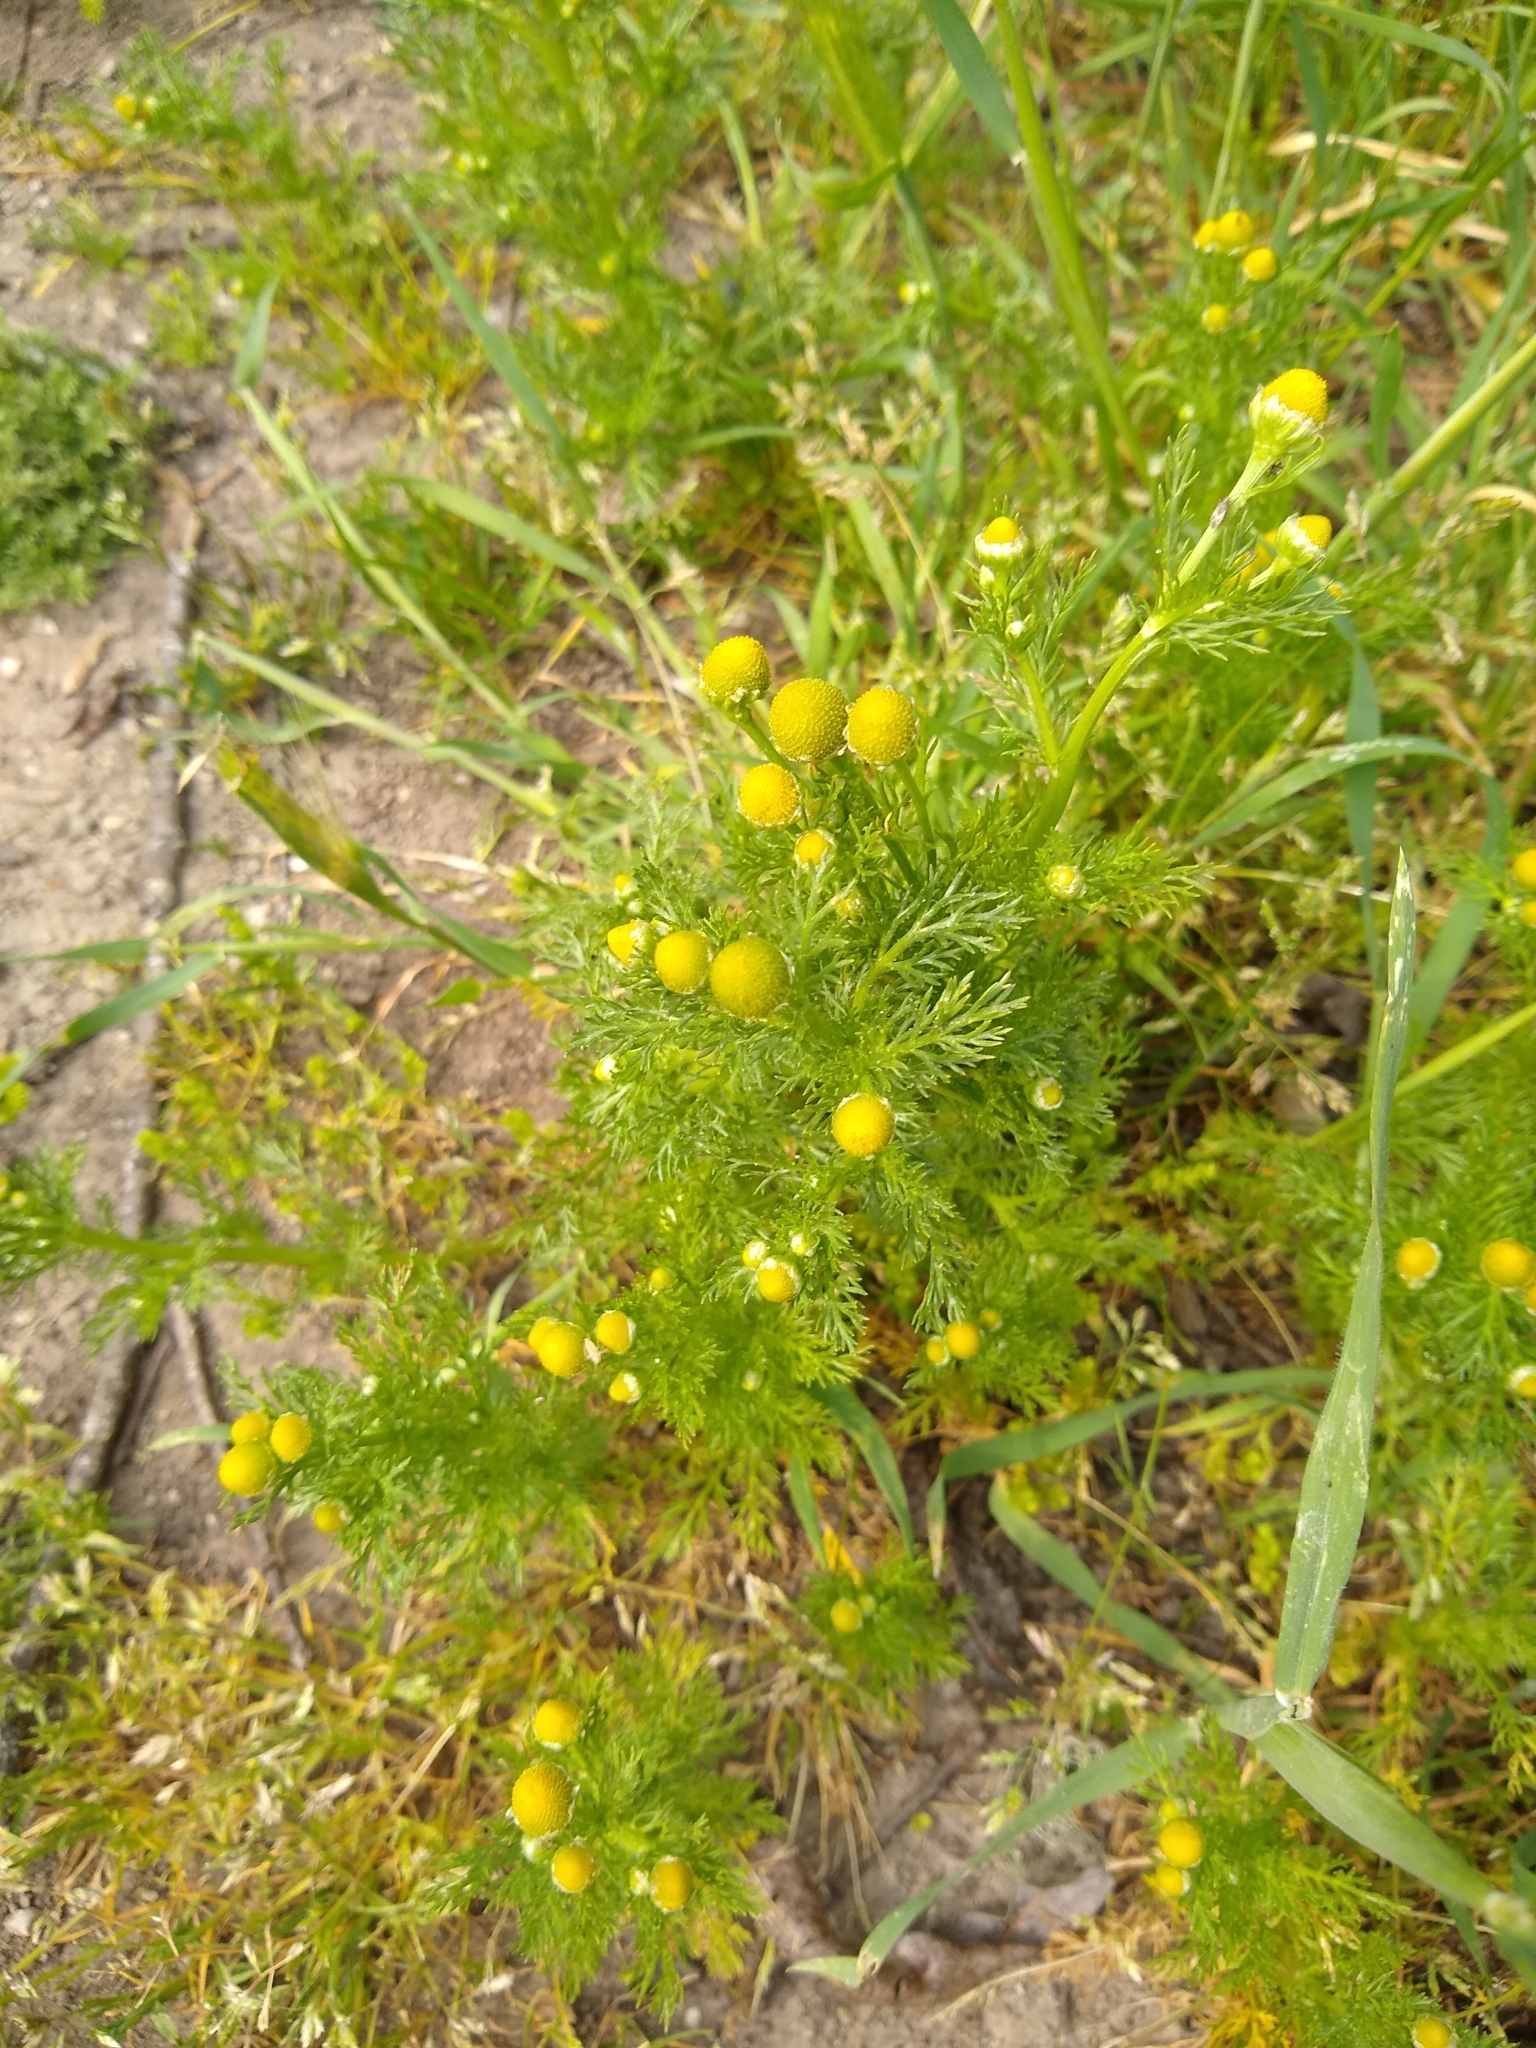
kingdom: Plantae
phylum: Tracheophyta
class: Magnoliopsida
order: Asterales
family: Asteraceae
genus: Matricaria
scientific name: Matricaria discoidea
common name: Disc mayweed
